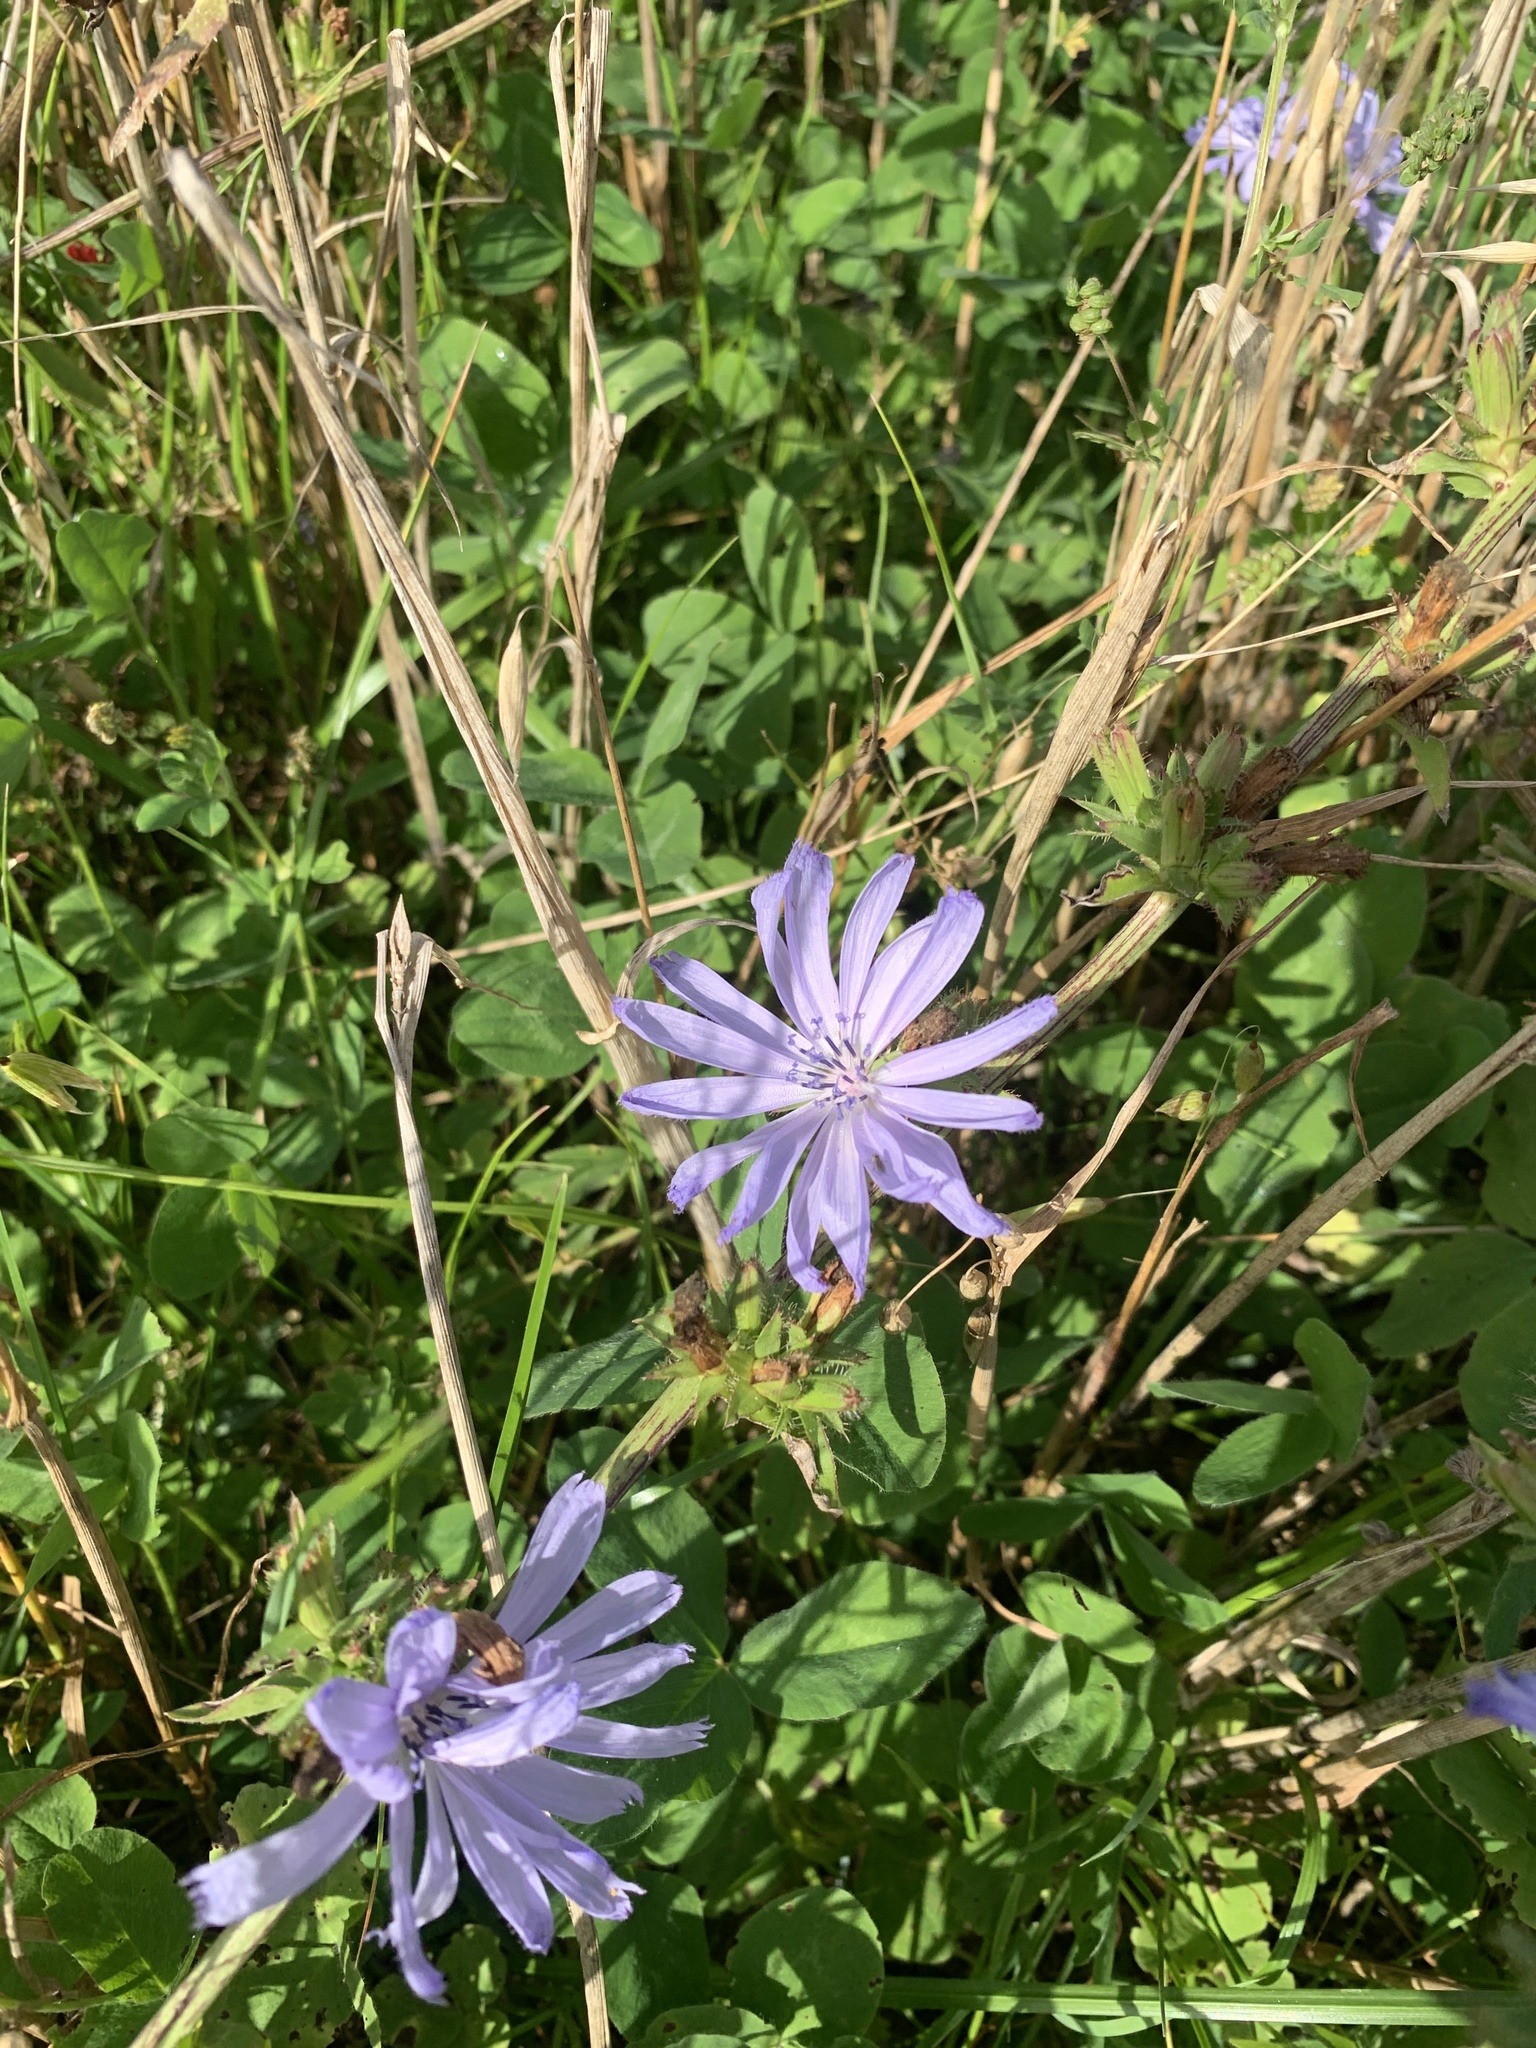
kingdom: Plantae
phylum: Tracheophyta
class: Magnoliopsida
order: Asterales
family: Asteraceae
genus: Cichorium
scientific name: Cichorium intybus
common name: Chicory
